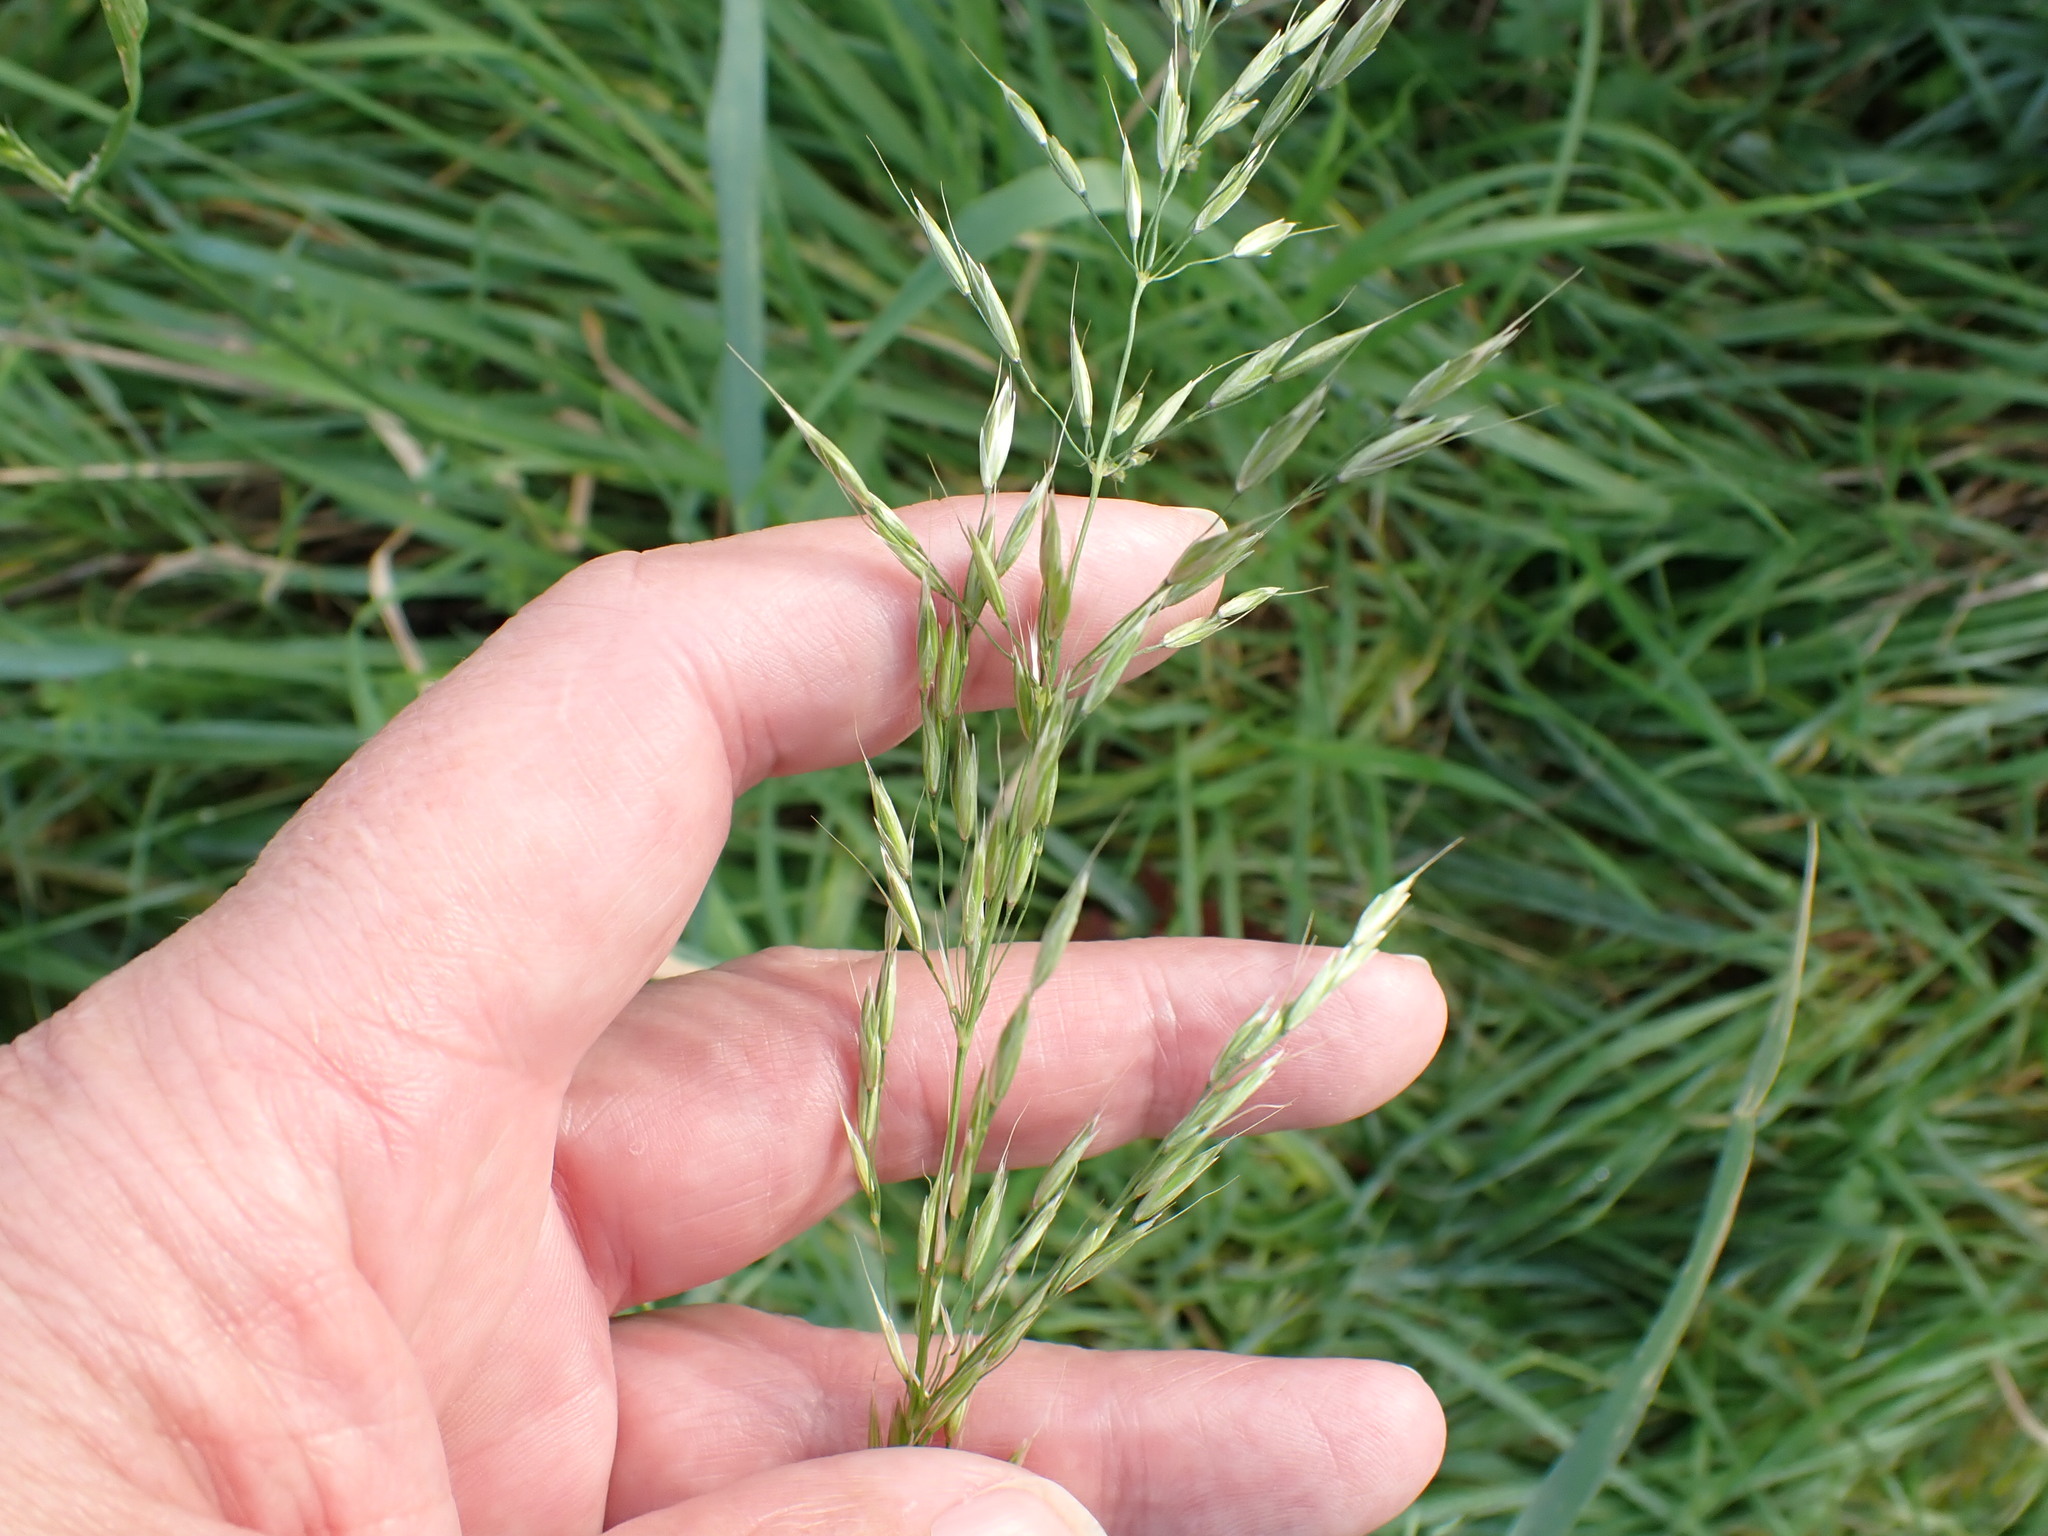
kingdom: Plantae
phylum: Tracheophyta
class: Liliopsida
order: Poales
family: Poaceae
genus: Arrhenatherum
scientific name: Arrhenatherum elatius
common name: Tall oatgrass
